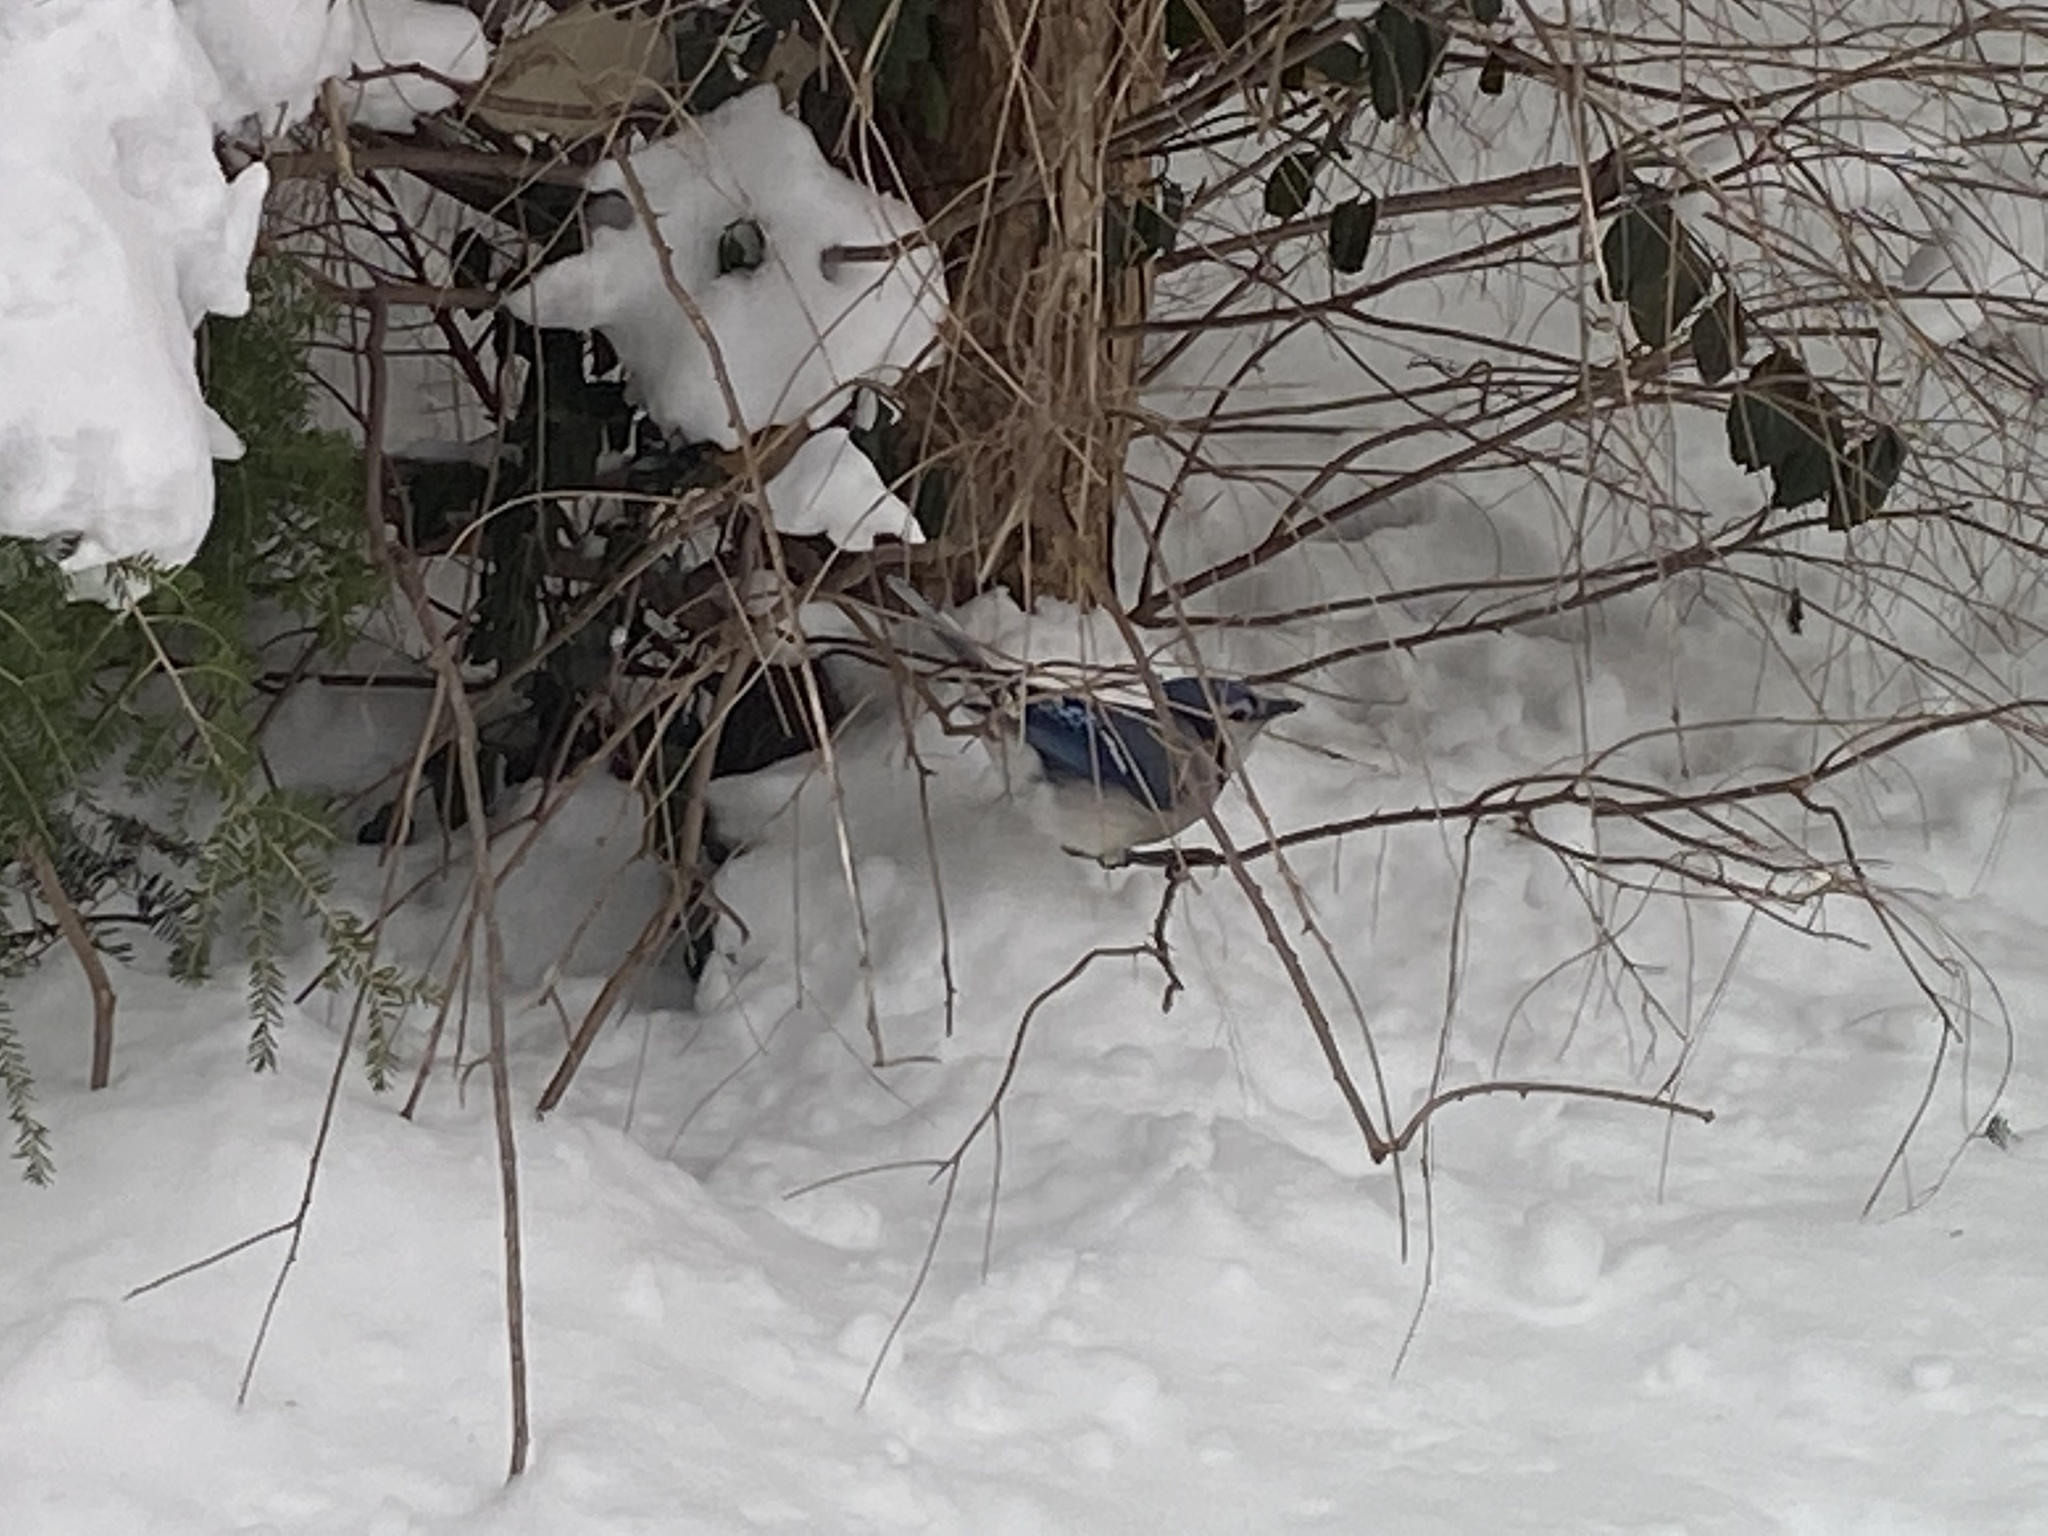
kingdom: Animalia
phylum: Chordata
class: Aves
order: Passeriformes
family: Corvidae
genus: Cyanocitta
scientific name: Cyanocitta cristata
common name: Blue jay
